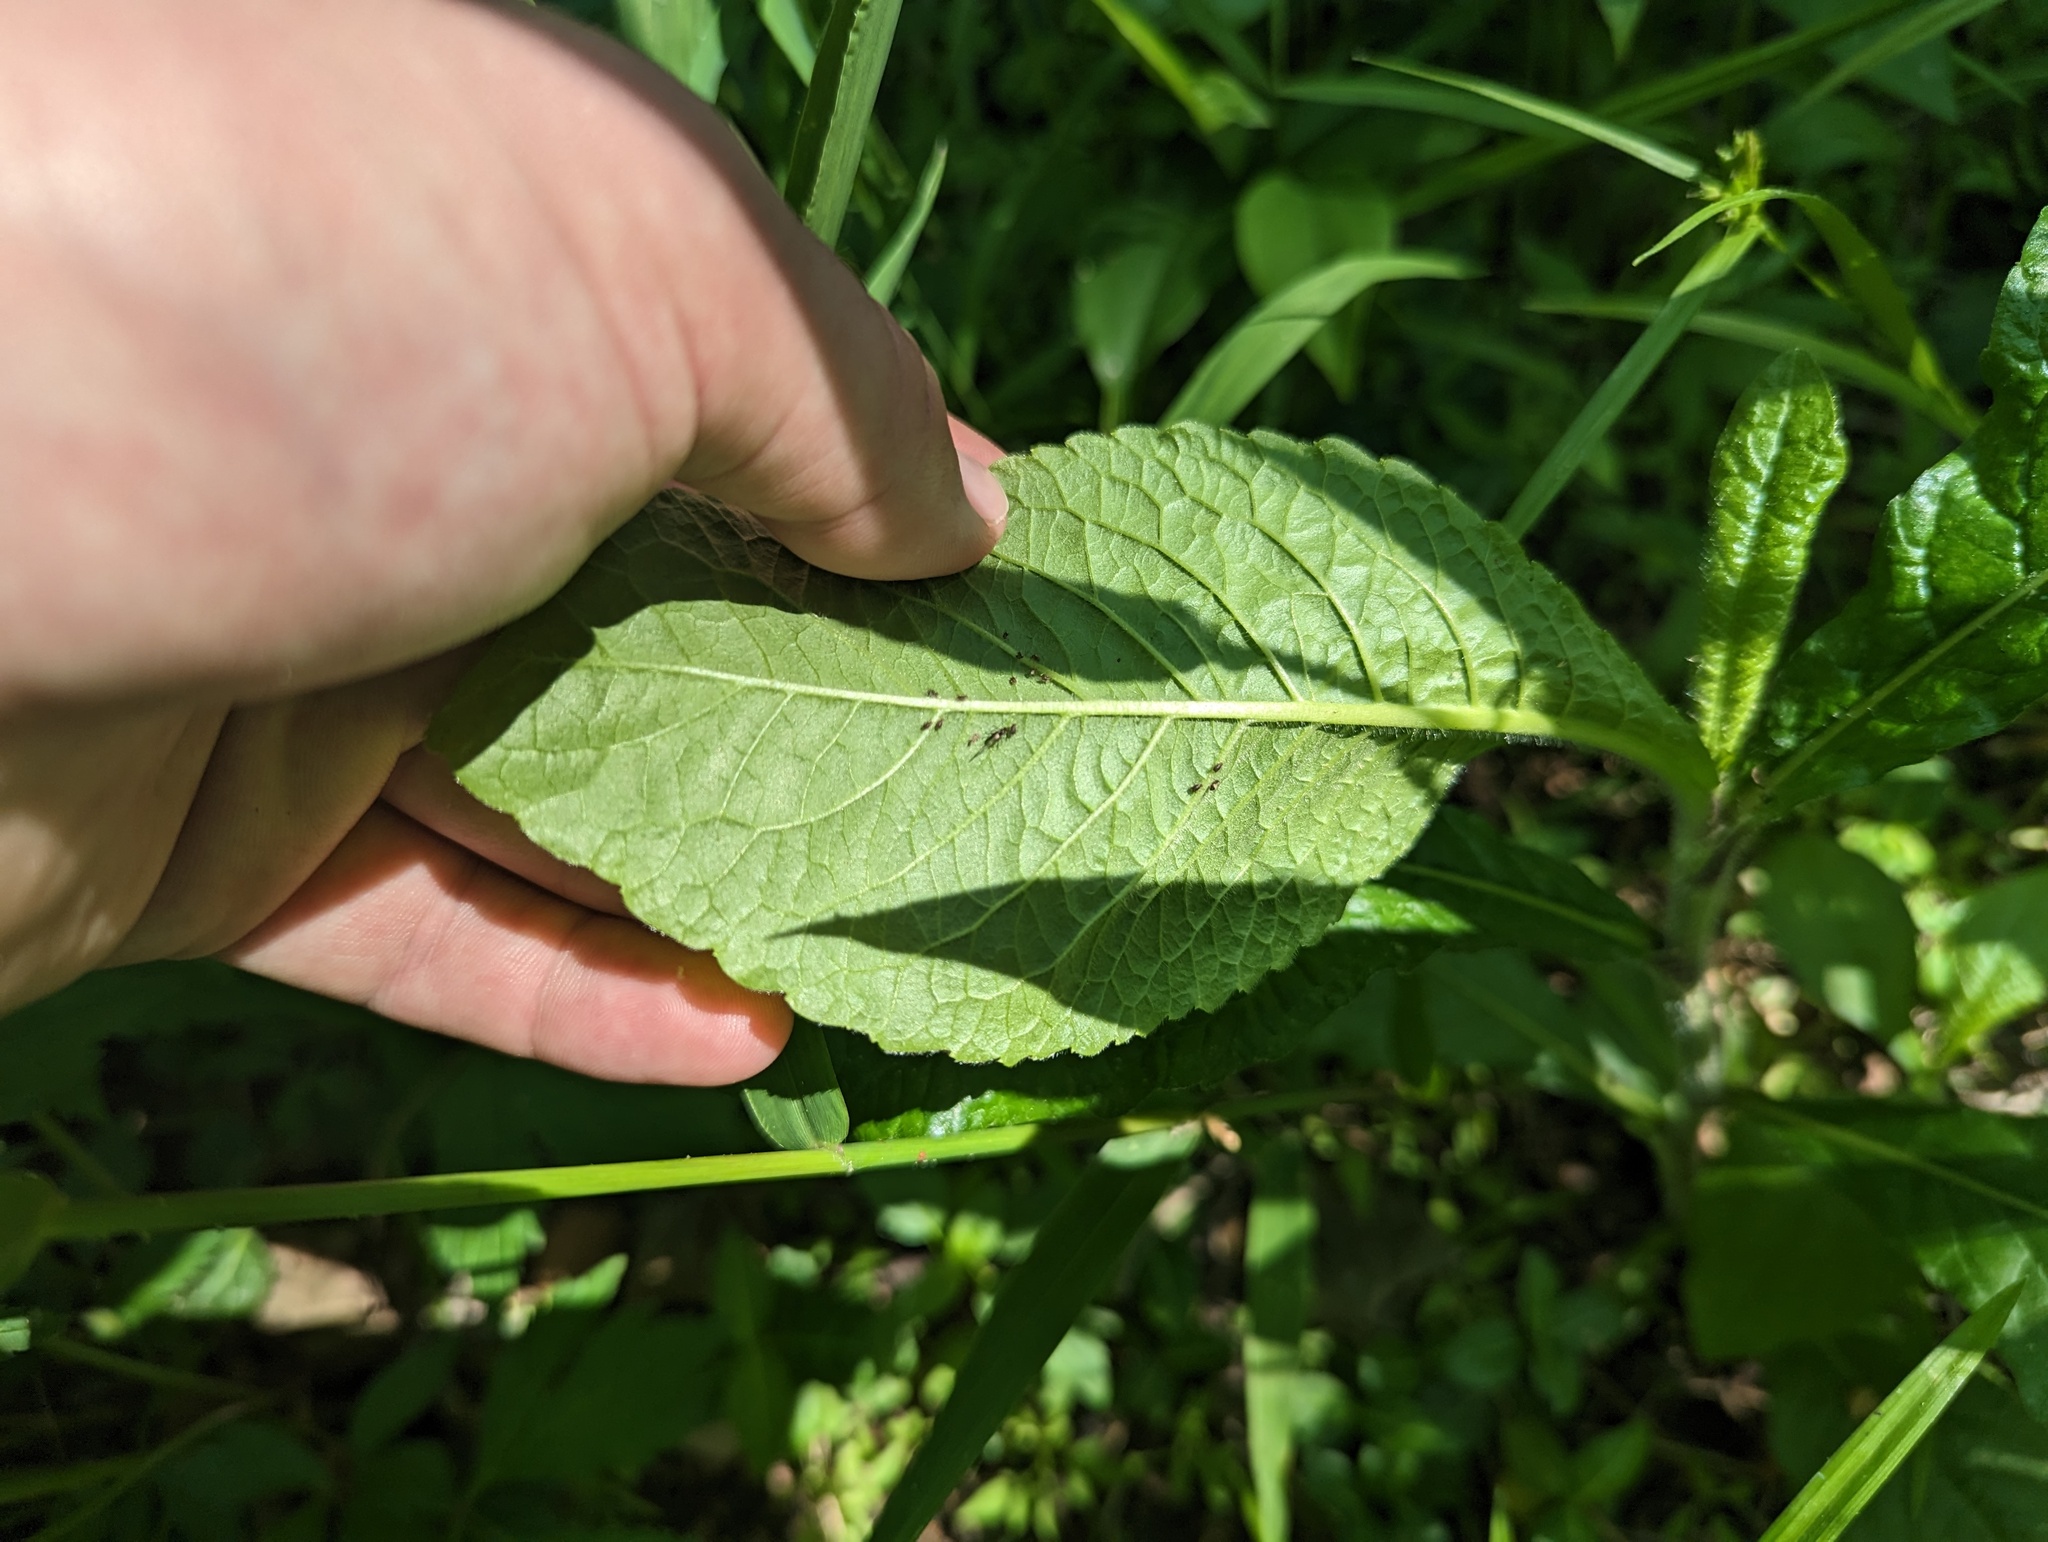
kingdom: Plantae
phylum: Tracheophyta
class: Magnoliopsida
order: Asterales
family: Asteraceae
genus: Elephantopus
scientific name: Elephantopus carolinianus
